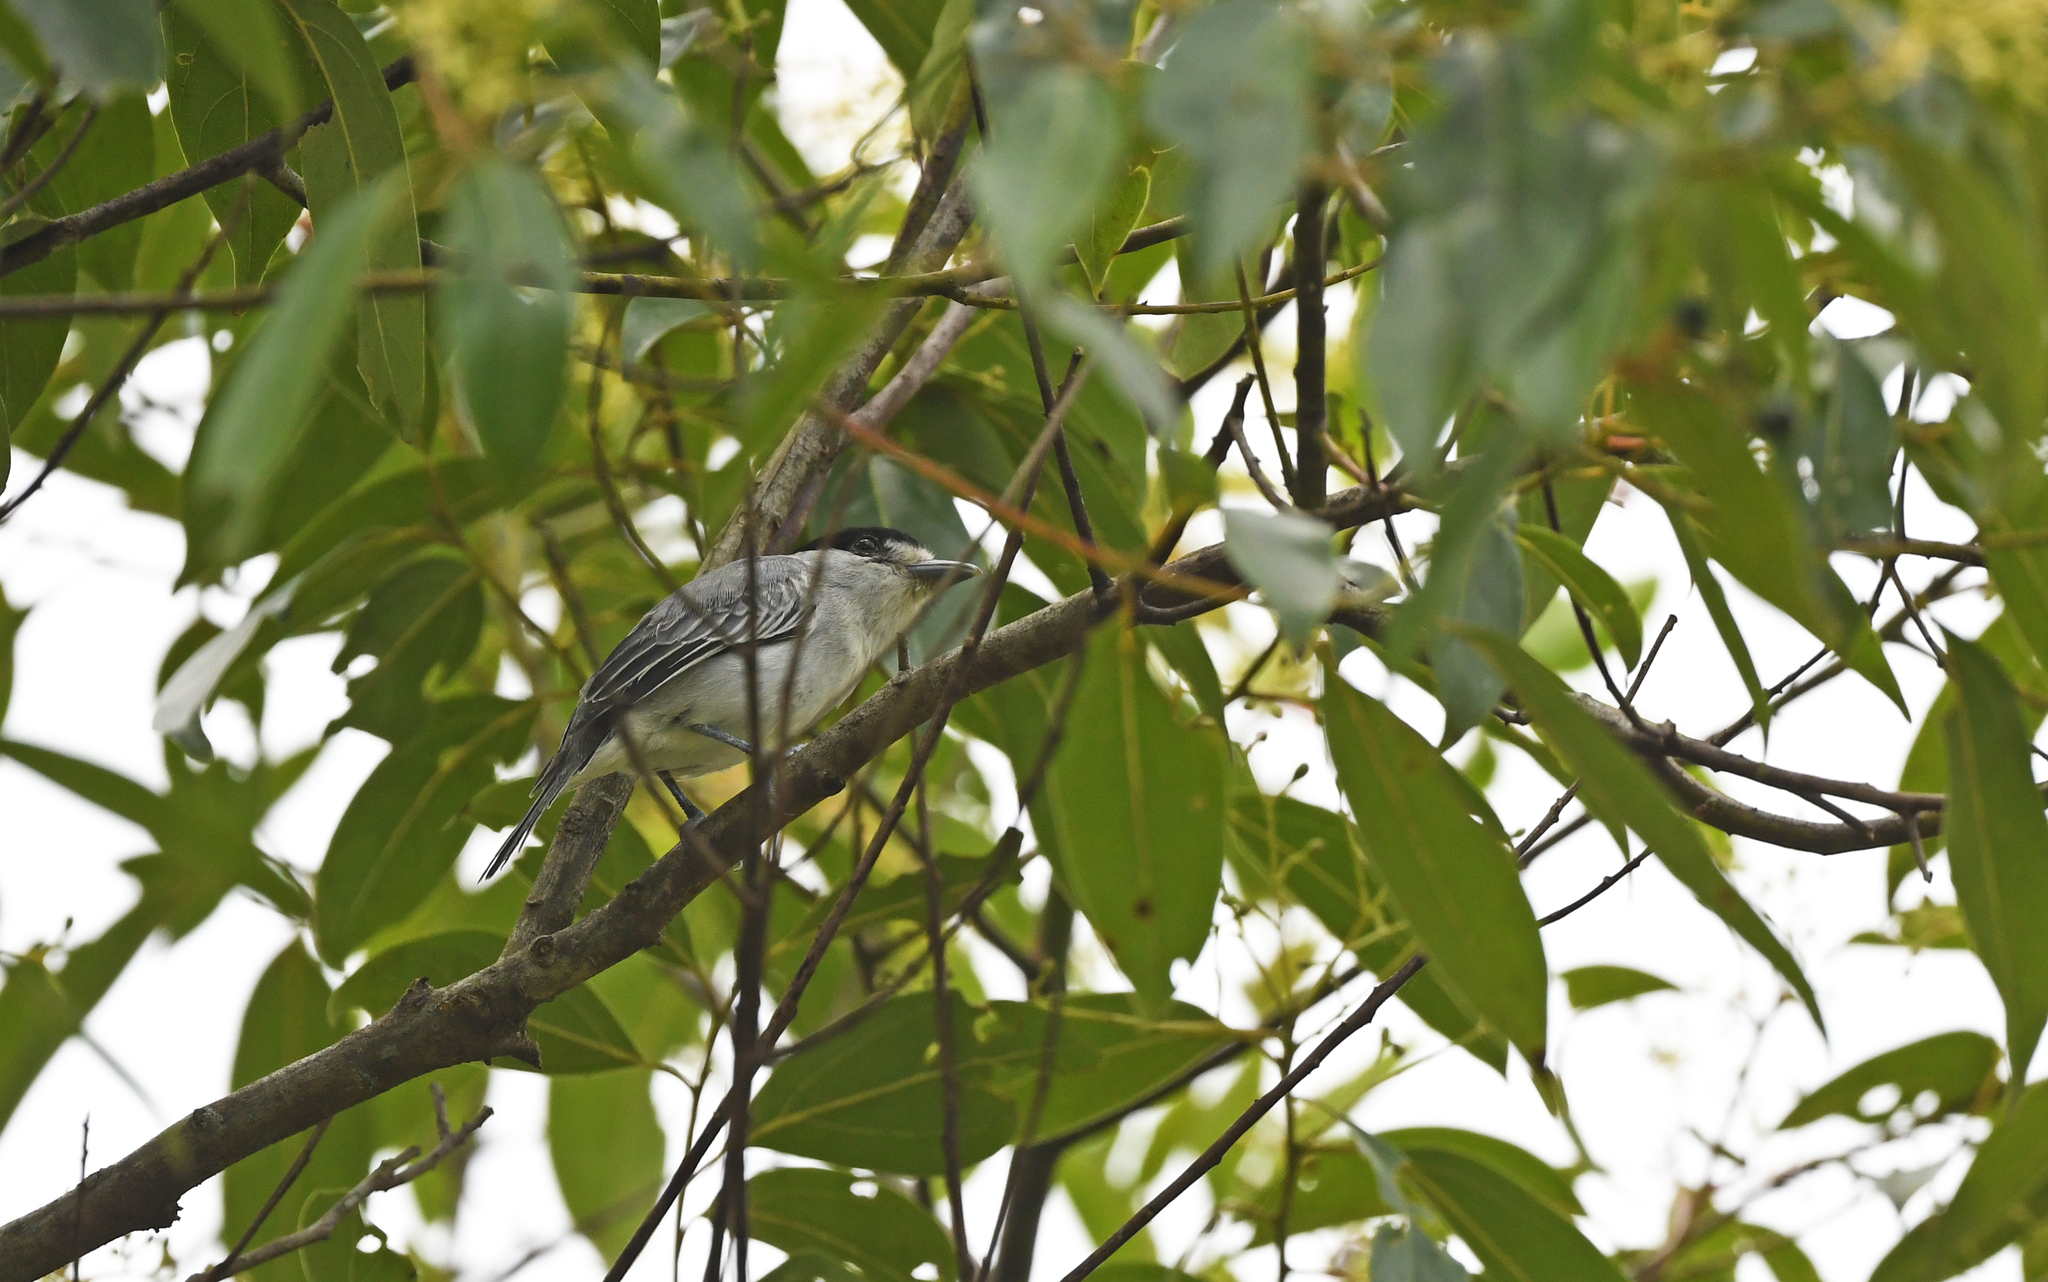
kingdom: Animalia
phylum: Chordata
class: Aves
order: Passeriformes
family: Cotingidae
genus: Pachyramphus
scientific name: Pachyramphus rufus
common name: Cinereous becard
